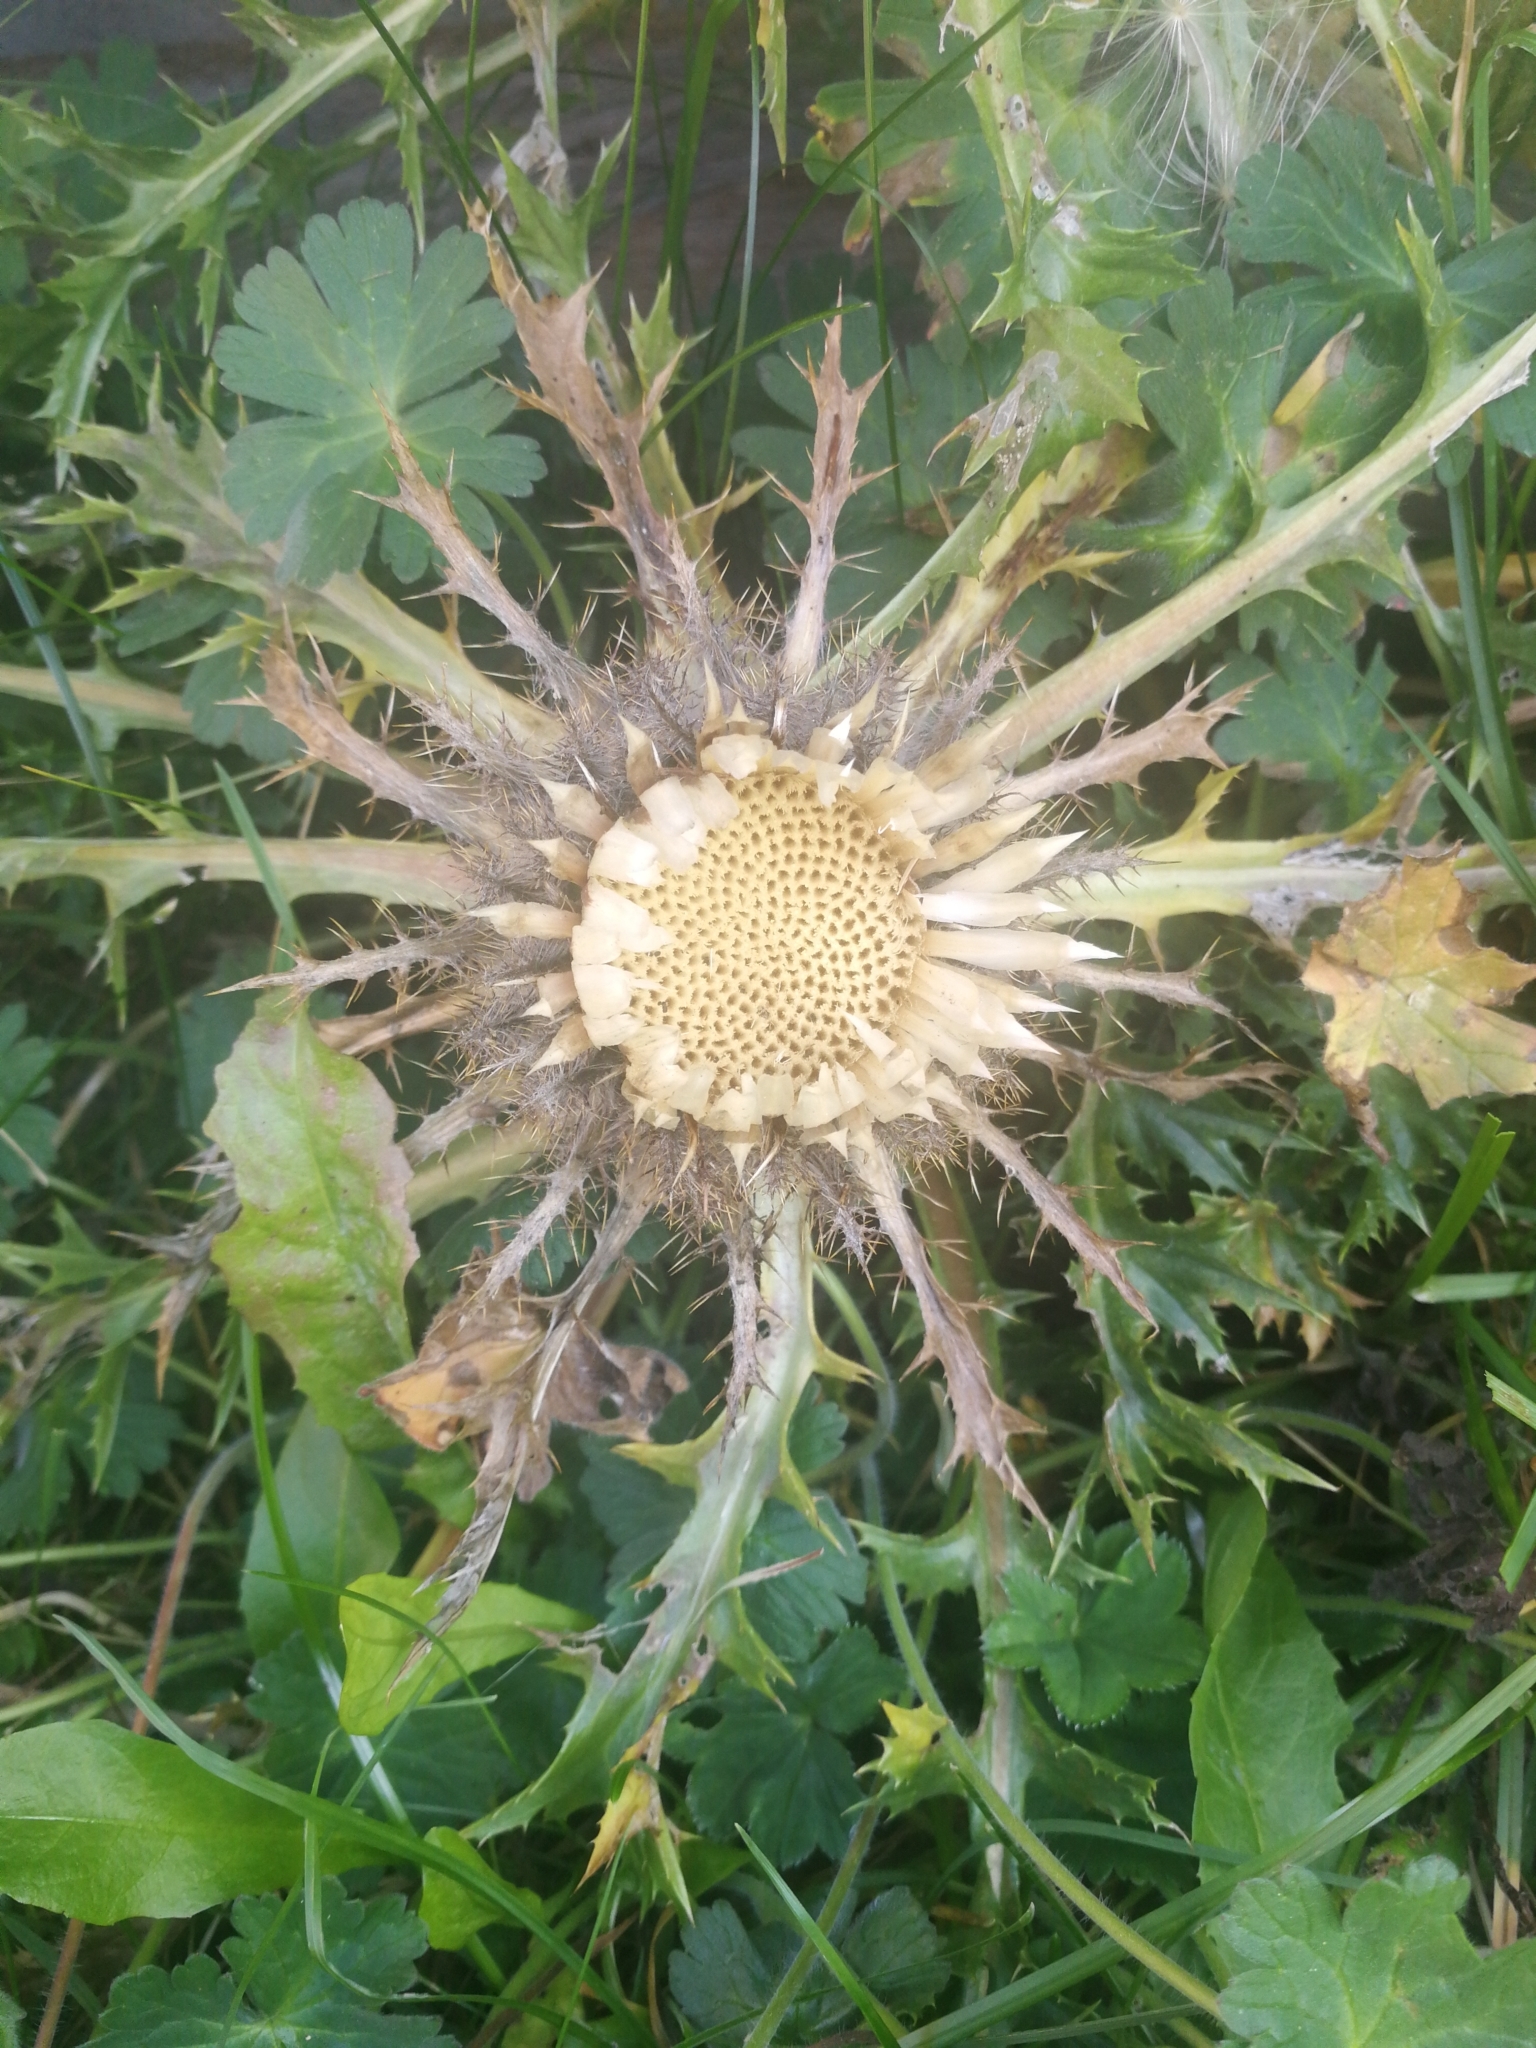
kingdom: Plantae
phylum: Tracheophyta
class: Magnoliopsida
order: Asterales
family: Asteraceae
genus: Carlina
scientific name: Carlina acaulis
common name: Stemless carline thistle
